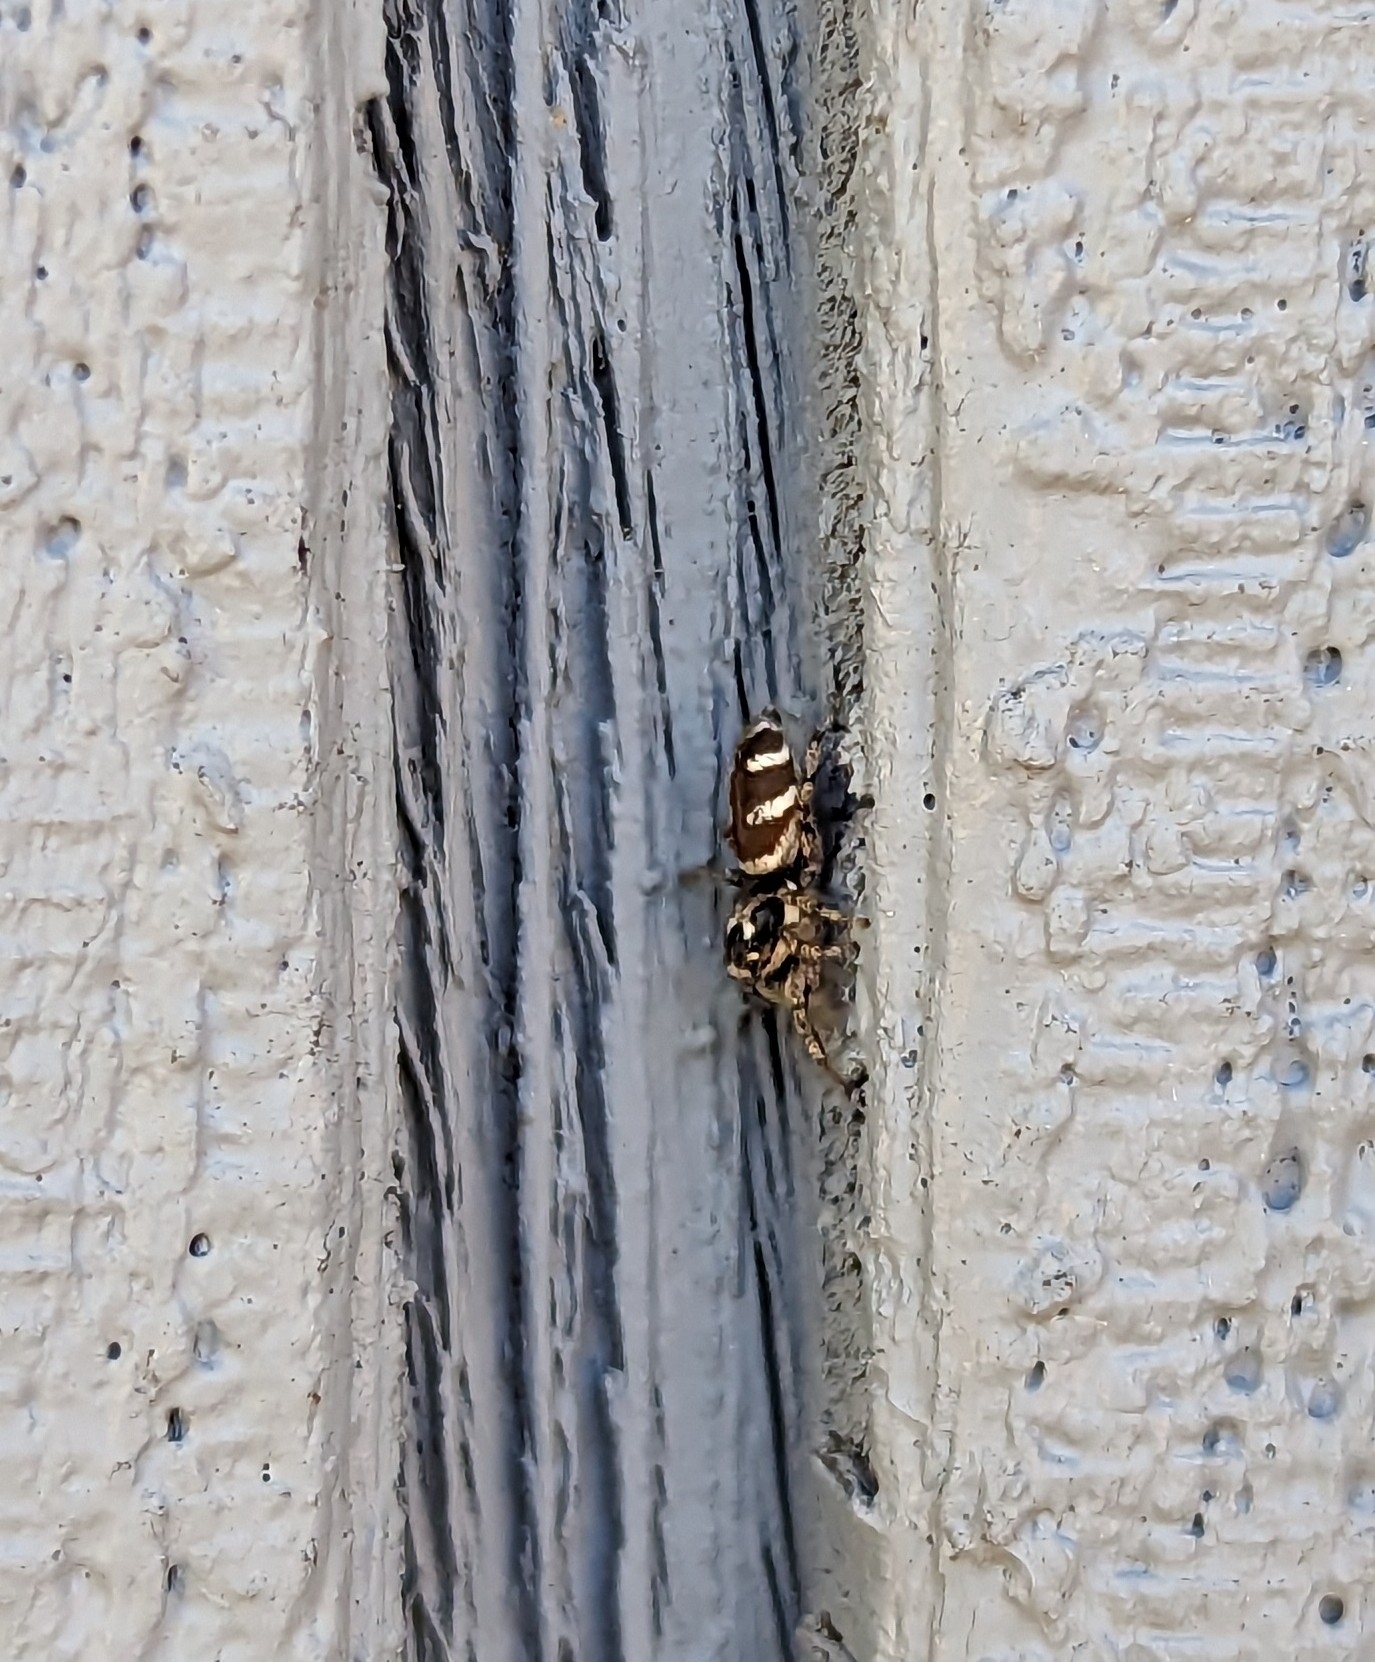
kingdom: Animalia
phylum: Arthropoda
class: Arachnida
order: Araneae
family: Salticidae
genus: Salticus
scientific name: Salticus scenicus
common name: Zebra jumper
